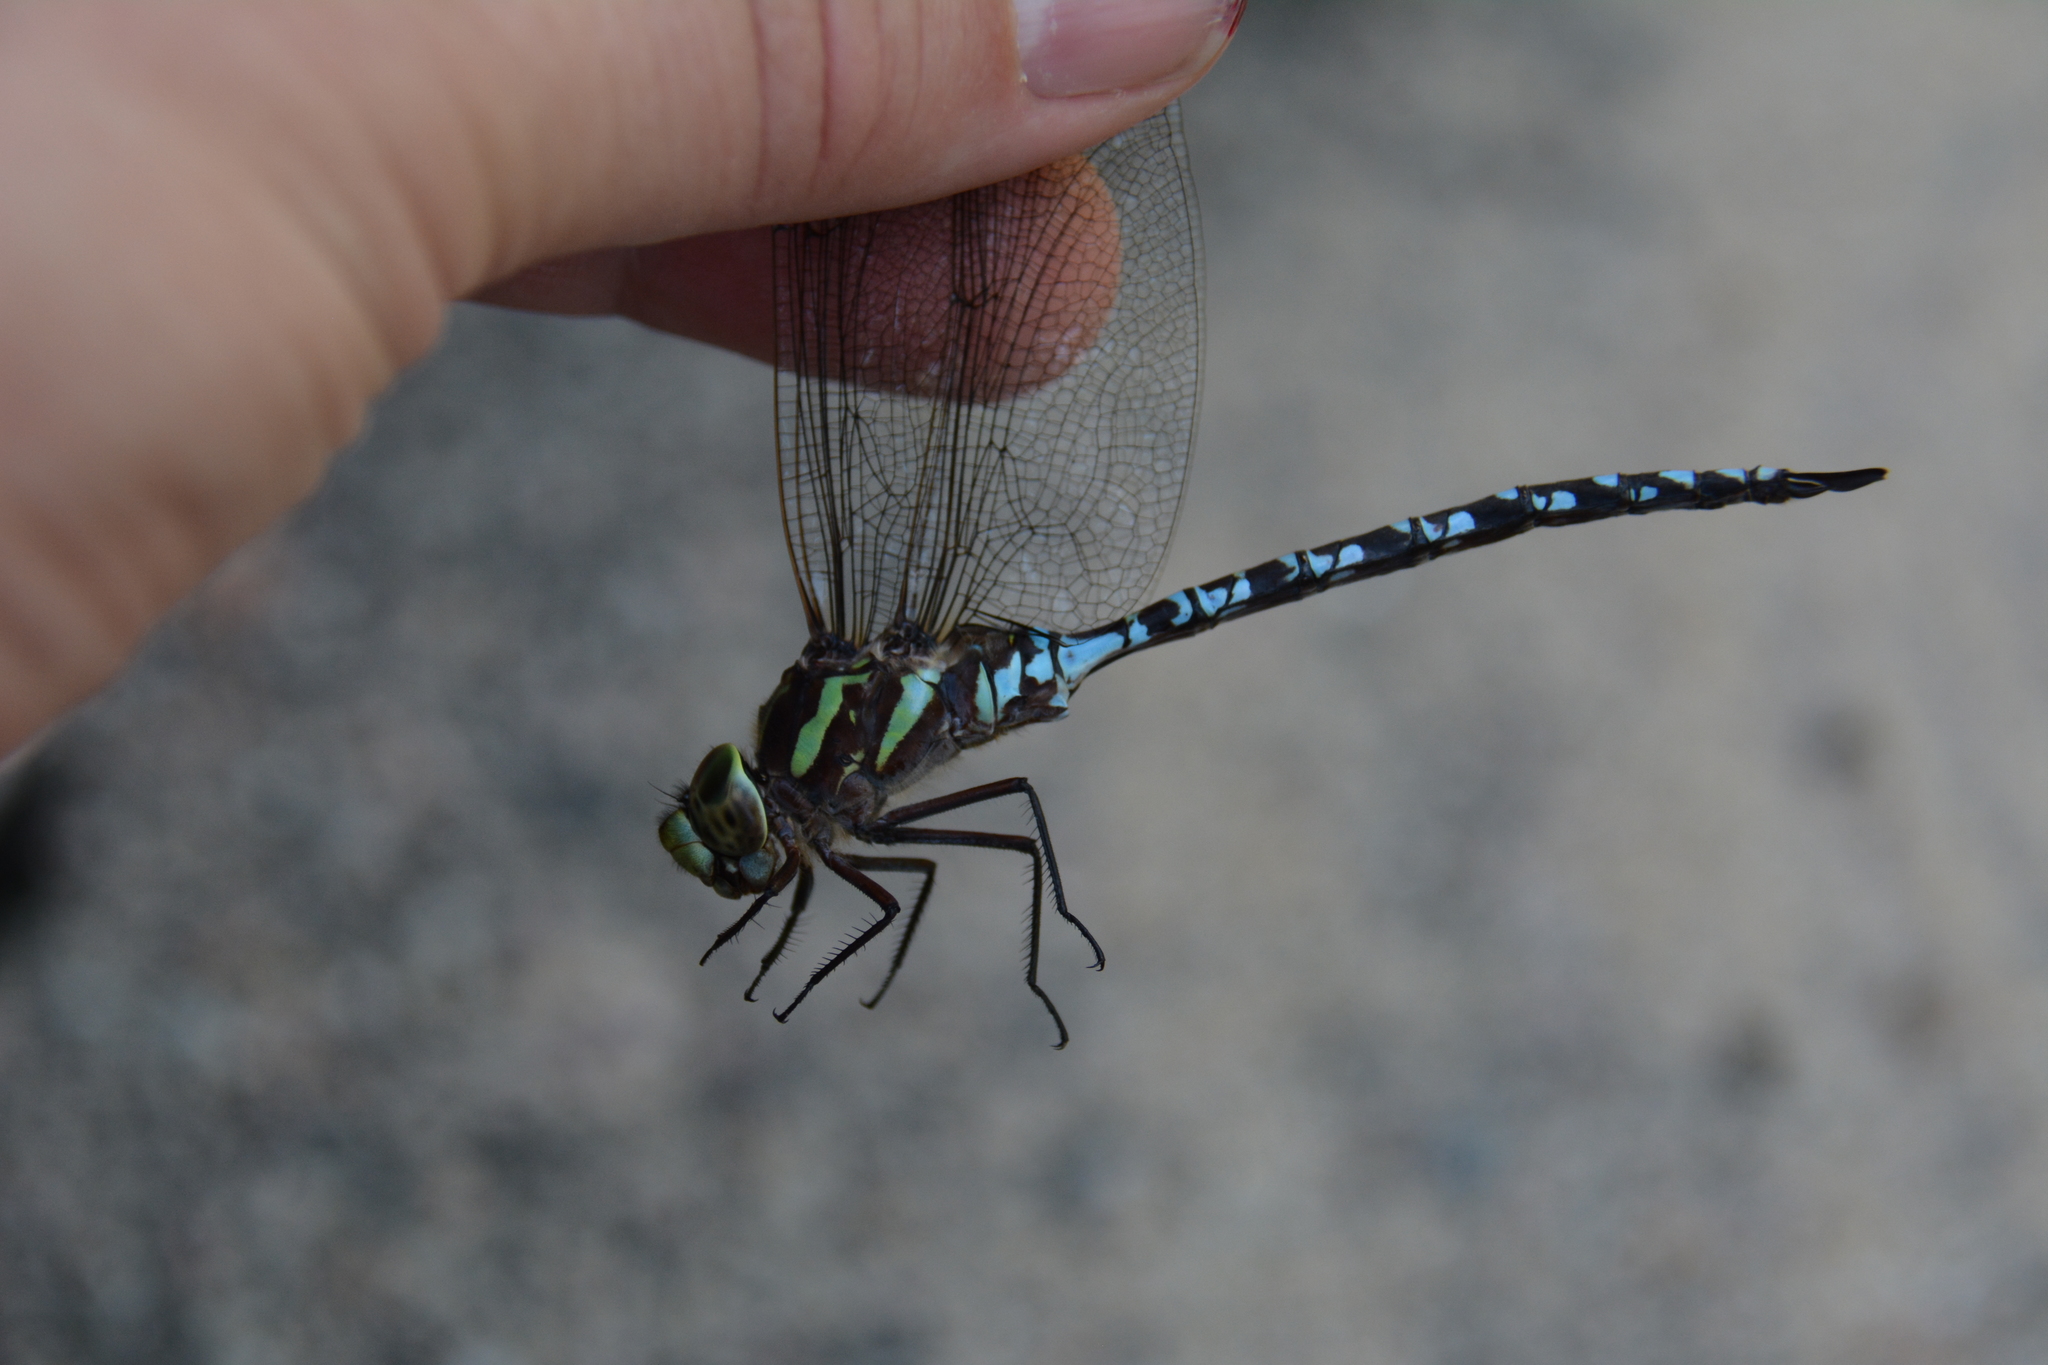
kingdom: Animalia
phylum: Arthropoda
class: Insecta
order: Odonata
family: Aeshnidae
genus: Aeshna
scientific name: Aeshna verticalis
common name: Green-striped darner
